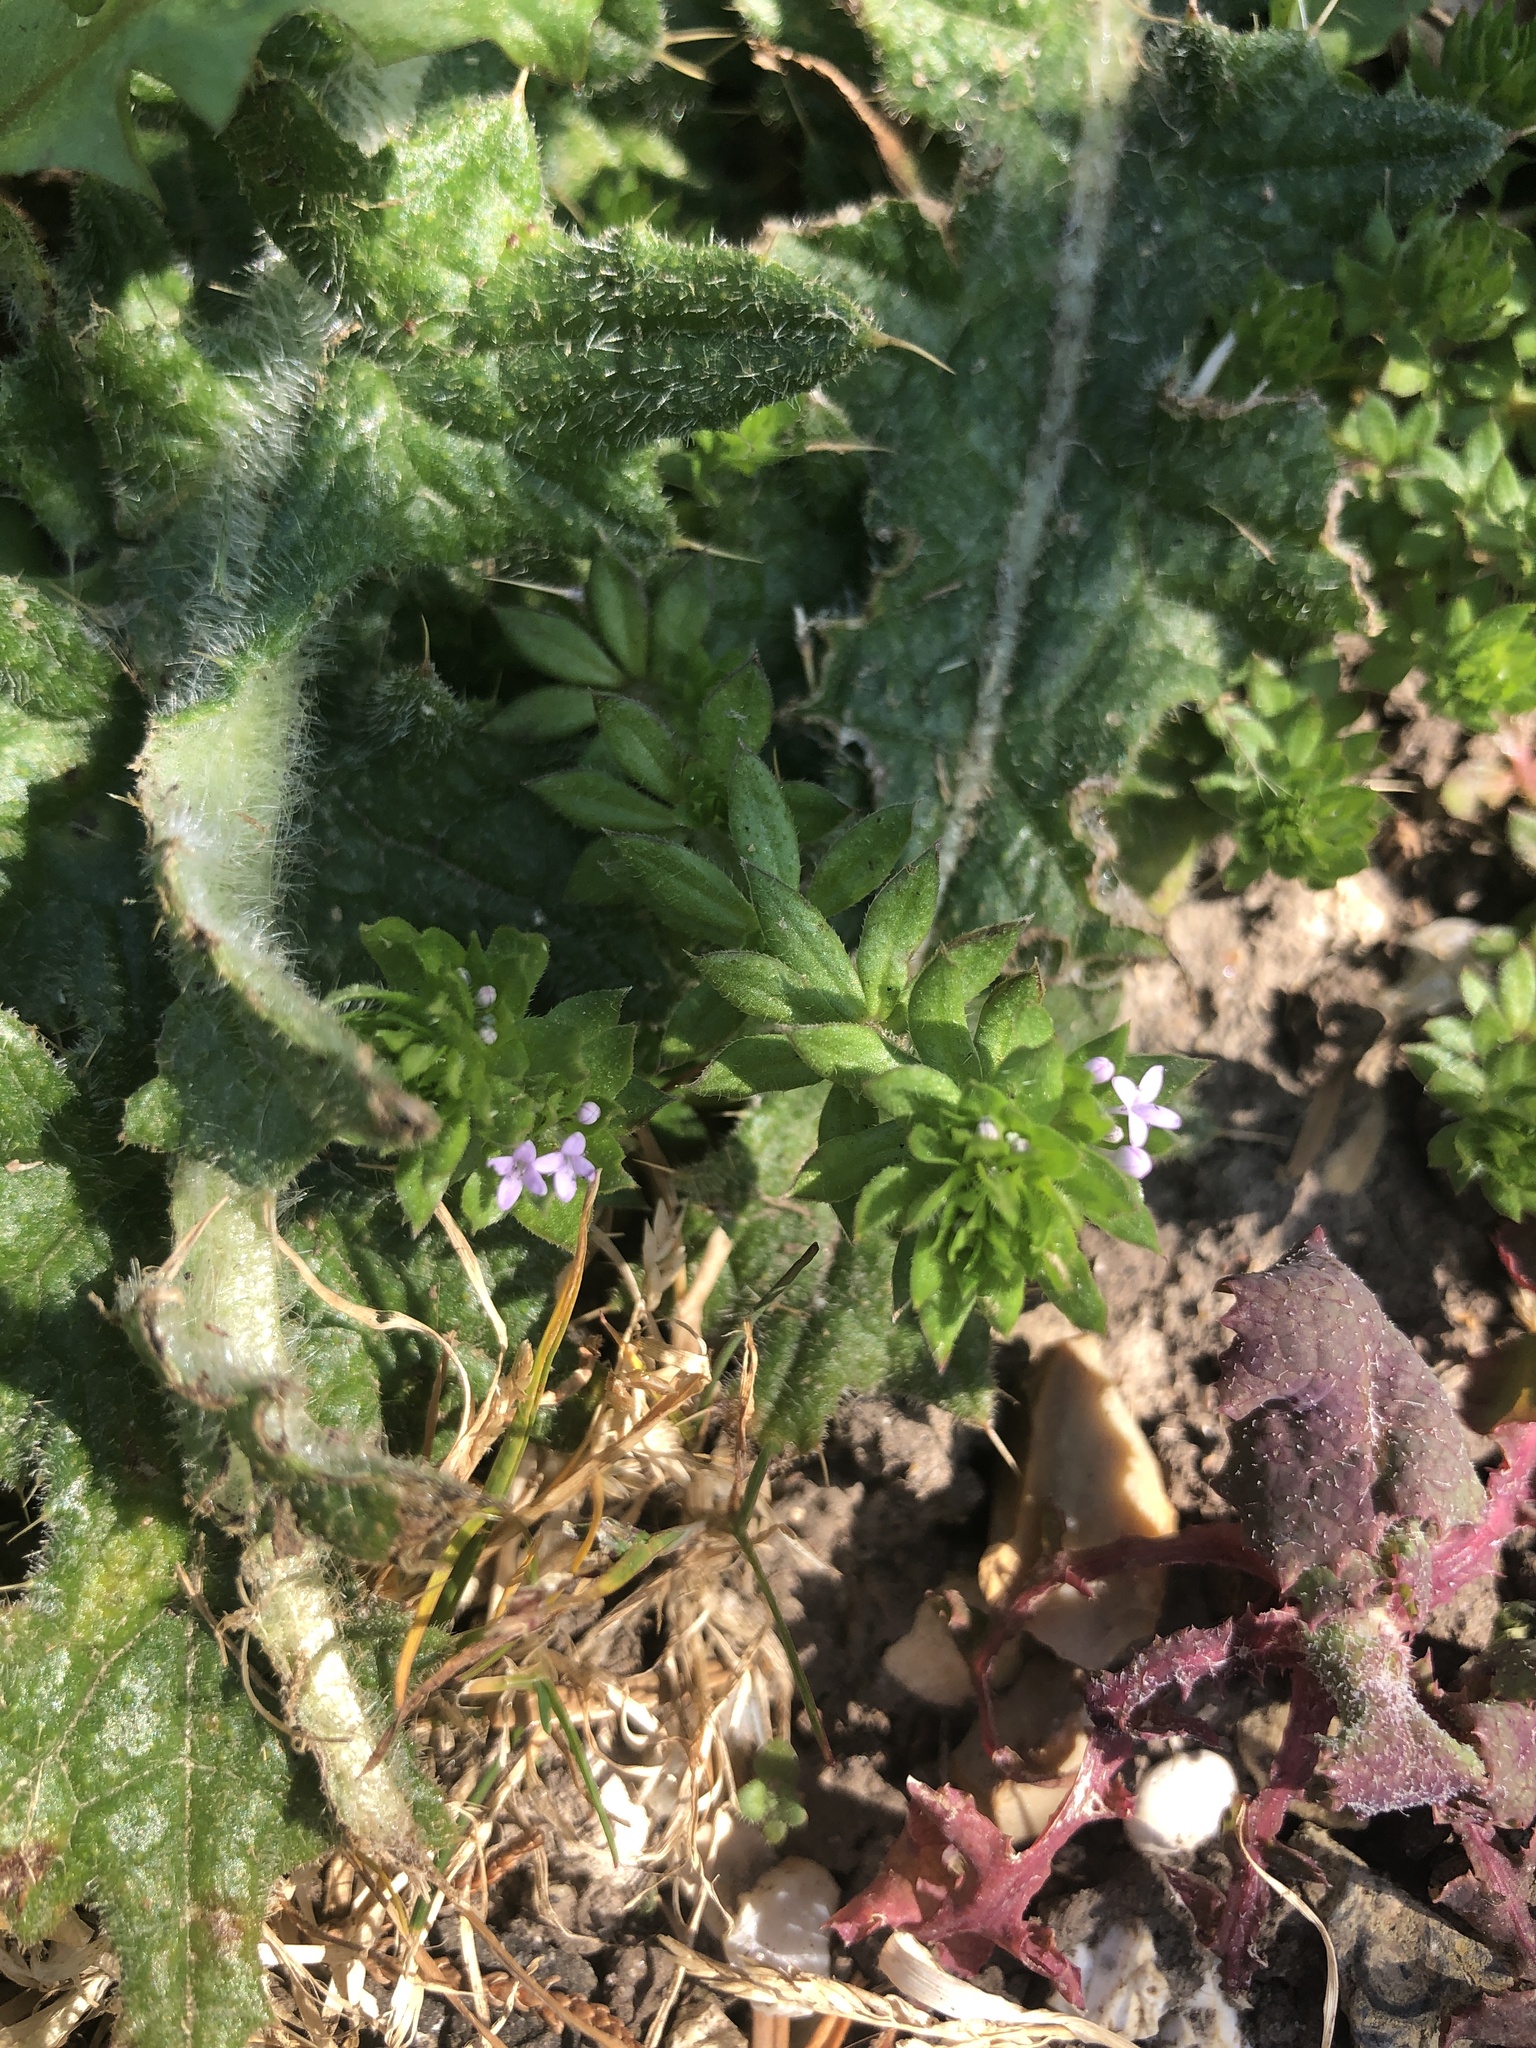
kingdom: Plantae
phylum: Tracheophyta
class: Magnoliopsida
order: Gentianales
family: Rubiaceae
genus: Sherardia
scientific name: Sherardia arvensis
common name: Field madder
